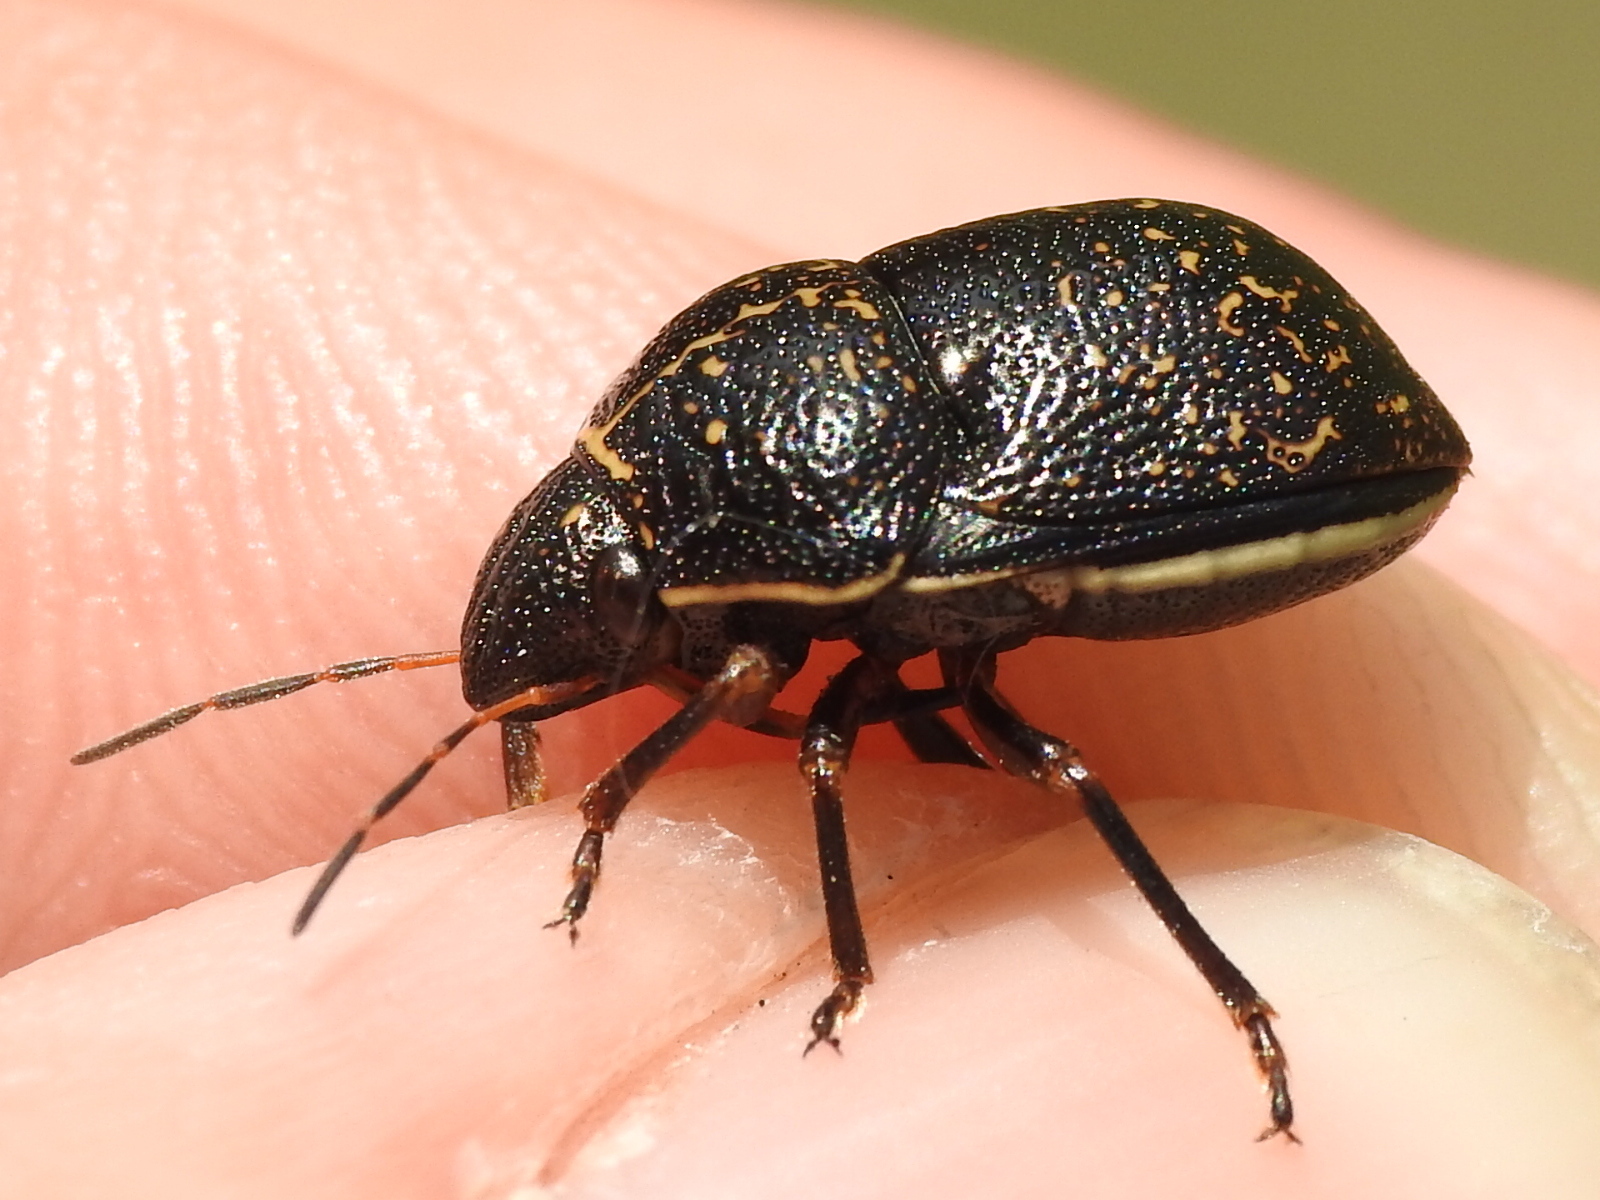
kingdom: Animalia
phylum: Arthropoda
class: Insecta
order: Hemiptera
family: Scutelleridae
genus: Orsilochides
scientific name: Orsilochides guttata
